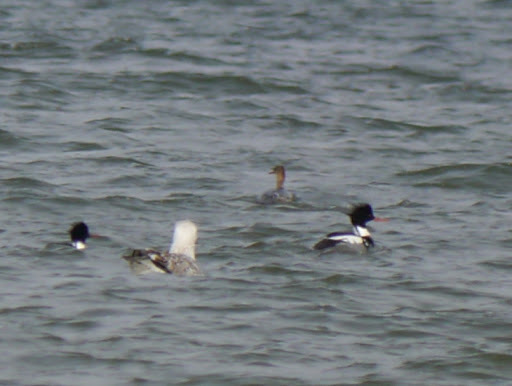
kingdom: Animalia
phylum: Chordata
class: Aves
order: Anseriformes
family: Anatidae
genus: Mergus
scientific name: Mergus serrator
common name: Red-breasted merganser
